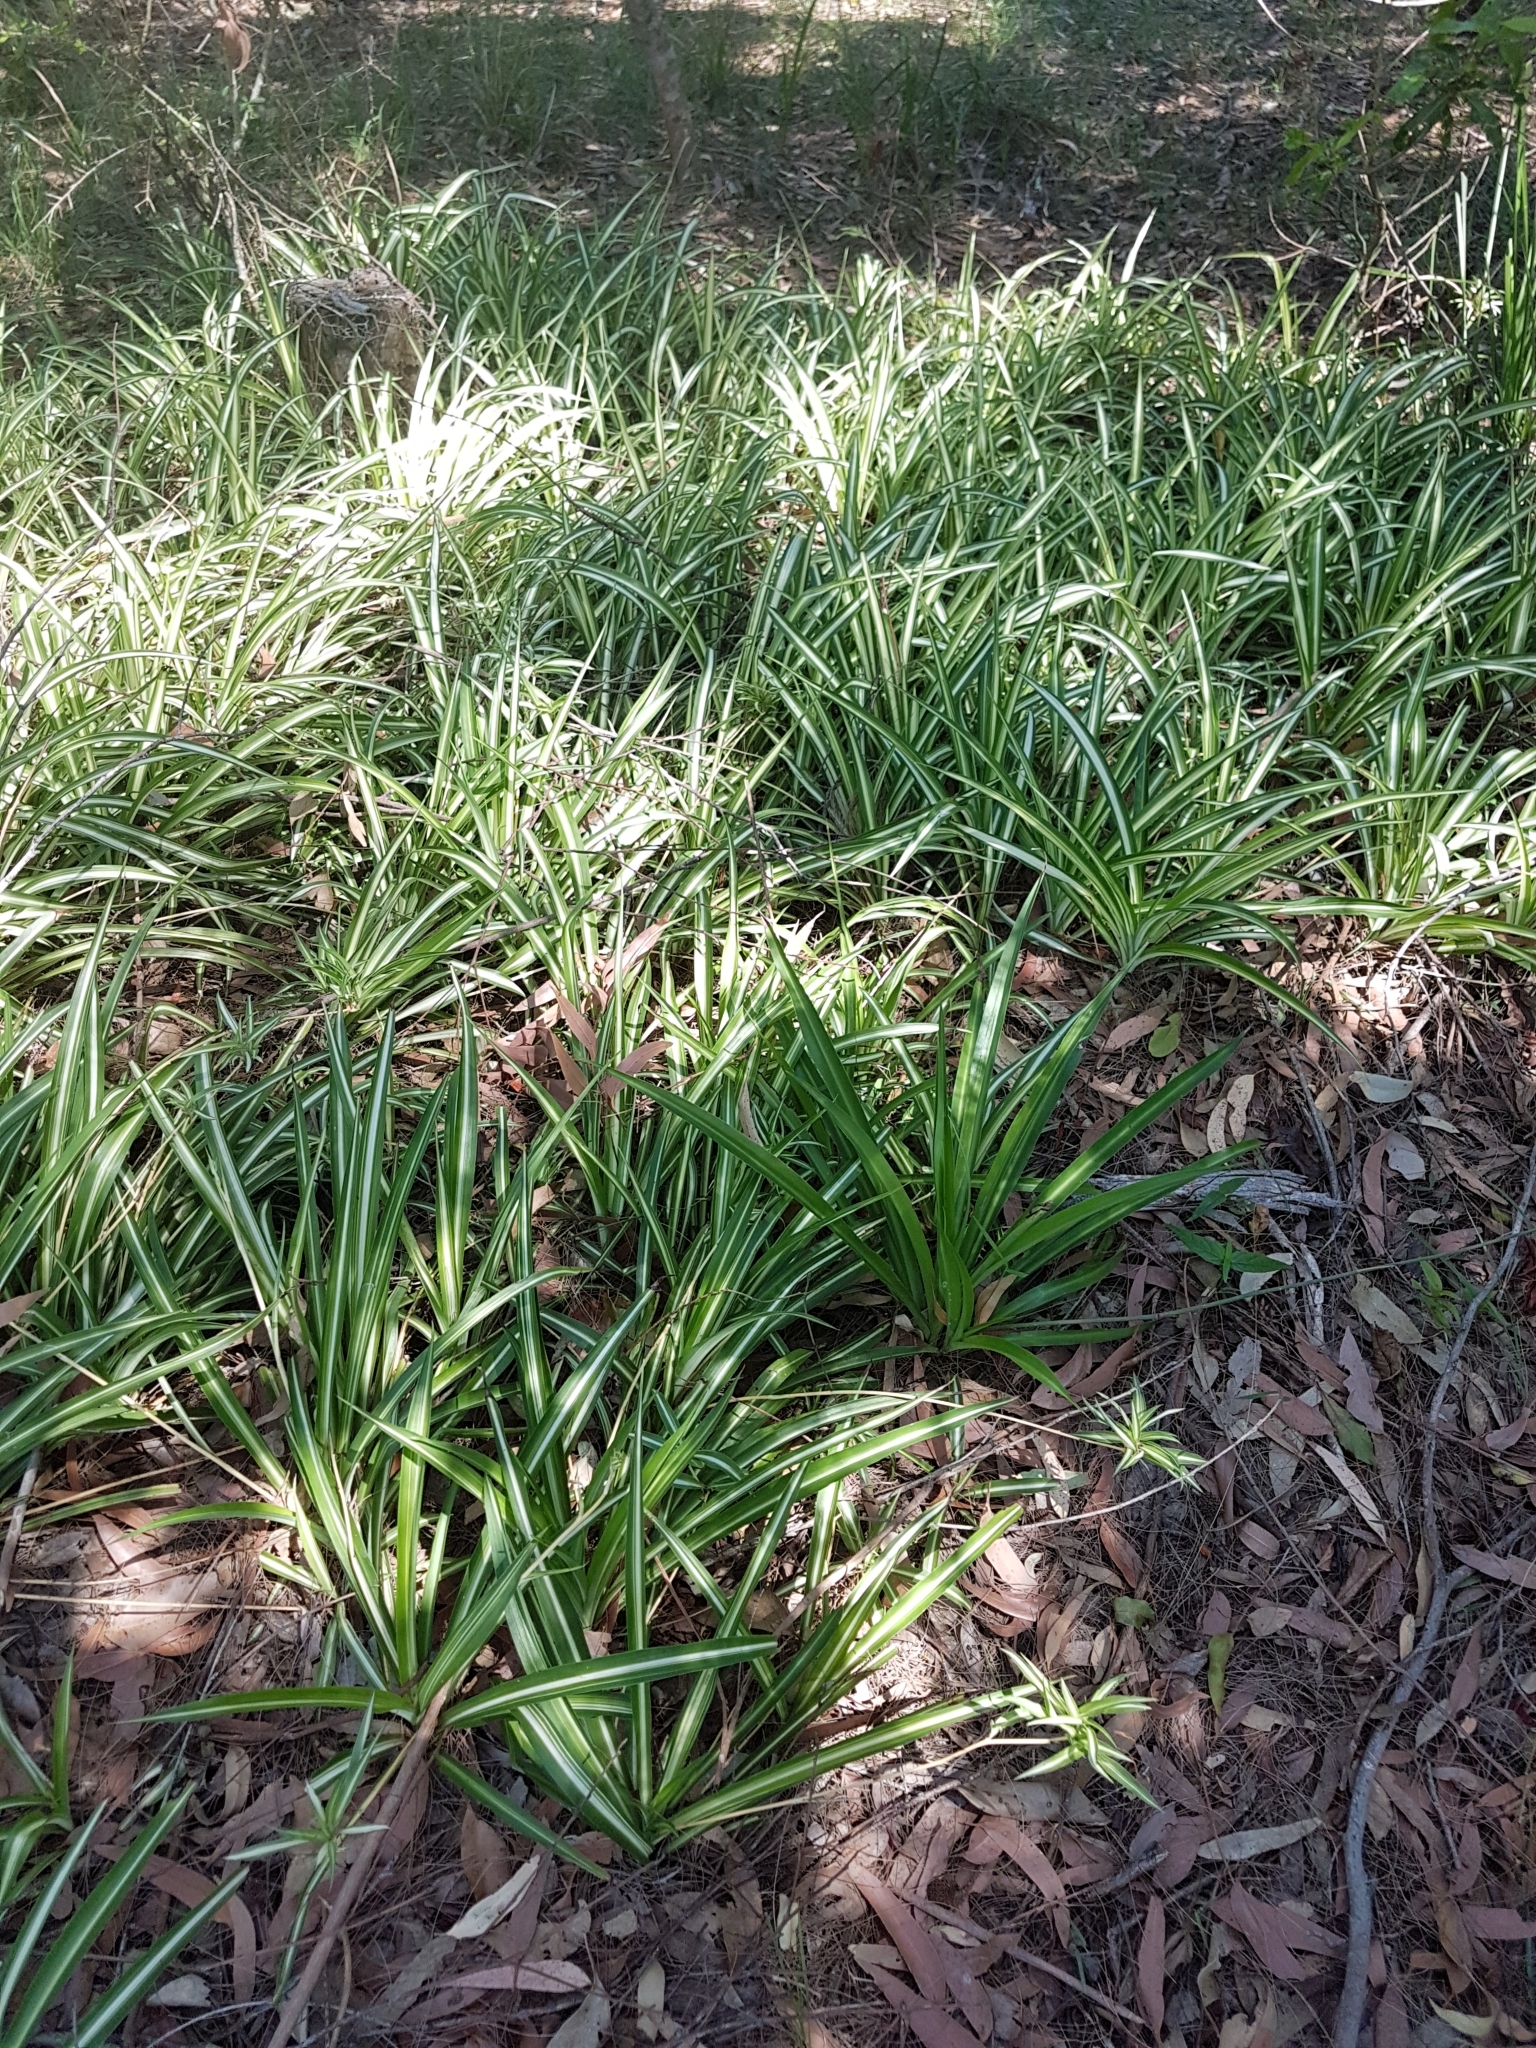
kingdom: Plantae
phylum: Tracheophyta
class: Liliopsida
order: Asparagales
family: Asparagaceae
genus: Chlorophytum
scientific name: Chlorophytum comosum
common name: Spider plant
